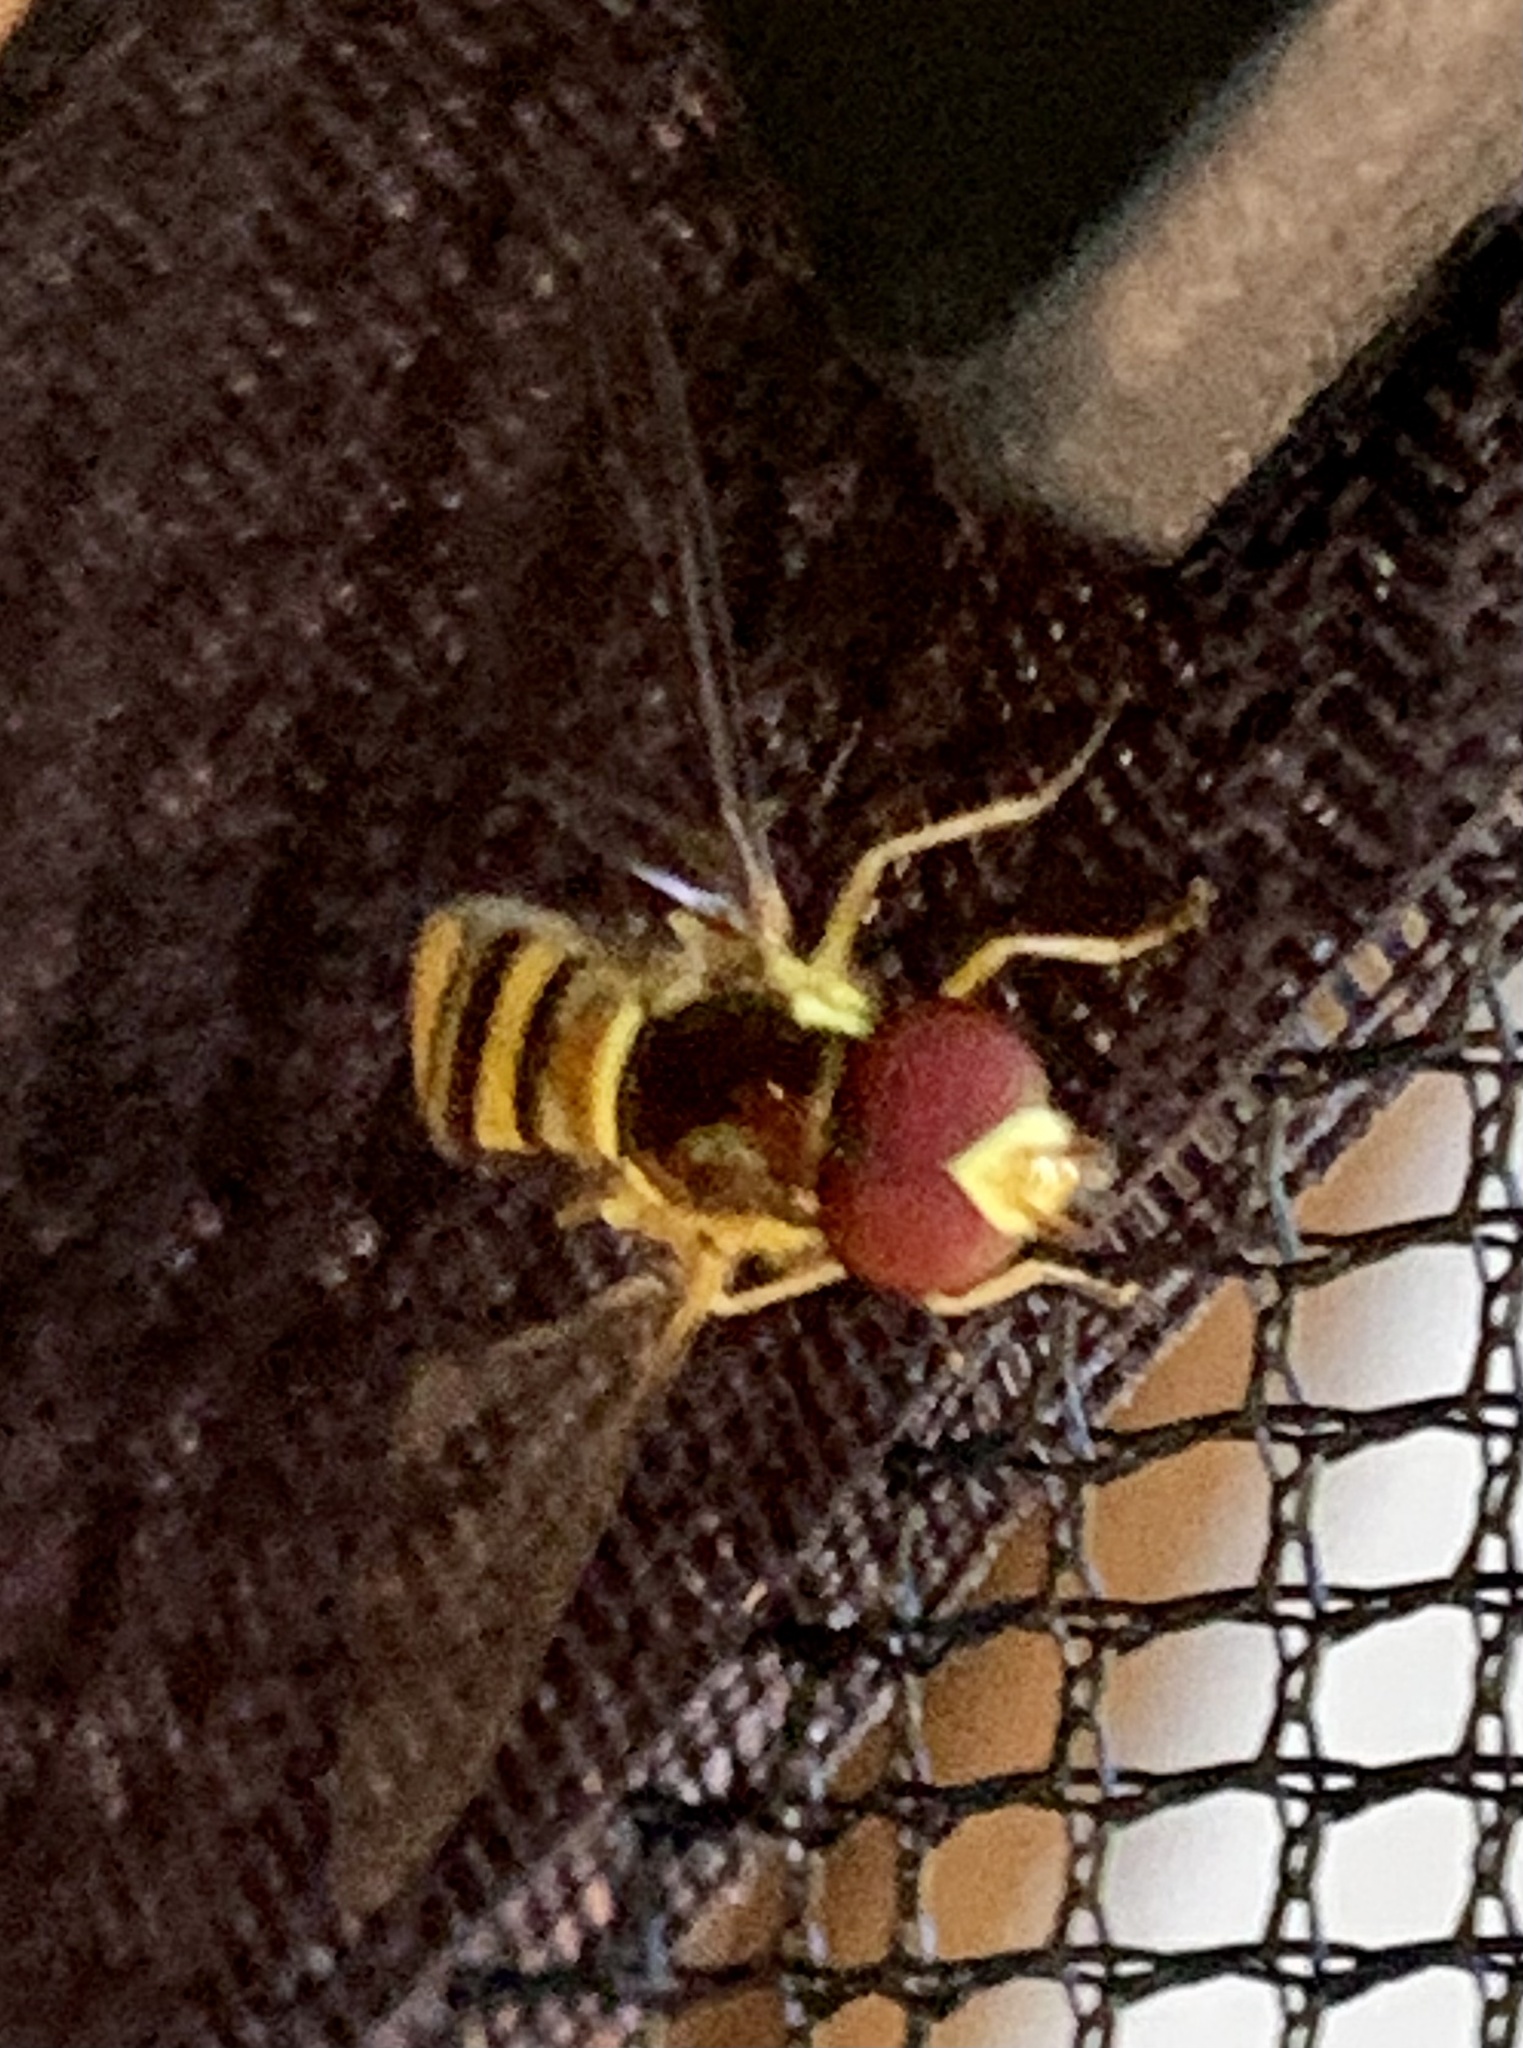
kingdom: Animalia
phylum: Arthropoda
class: Insecta
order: Diptera
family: Syrphidae
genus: Allograpta
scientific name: Allograpta obliqua
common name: Common oblique syrphid
